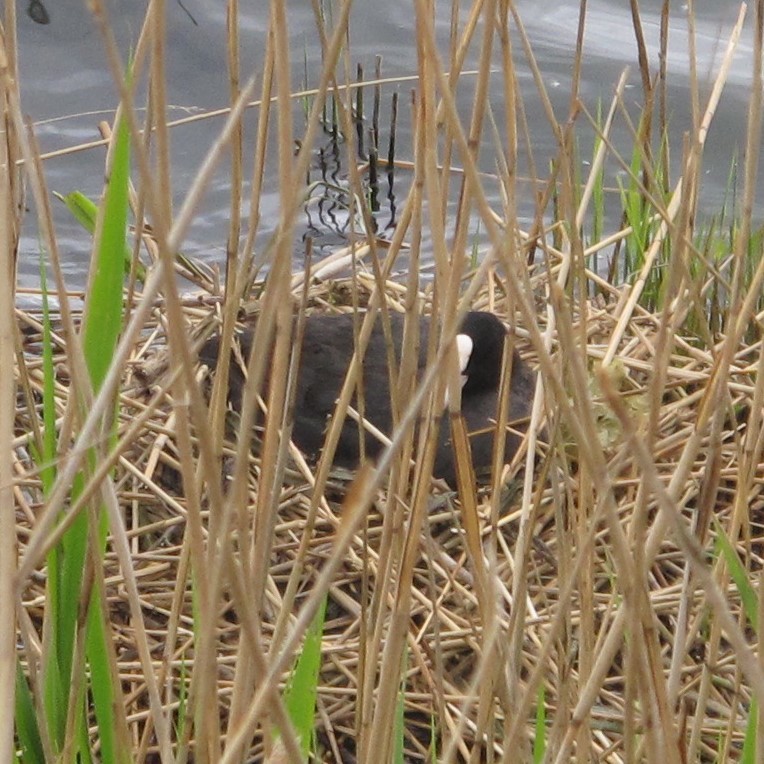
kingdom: Animalia
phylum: Chordata
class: Aves
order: Gruiformes
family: Rallidae
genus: Fulica
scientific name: Fulica atra
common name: Eurasian coot
